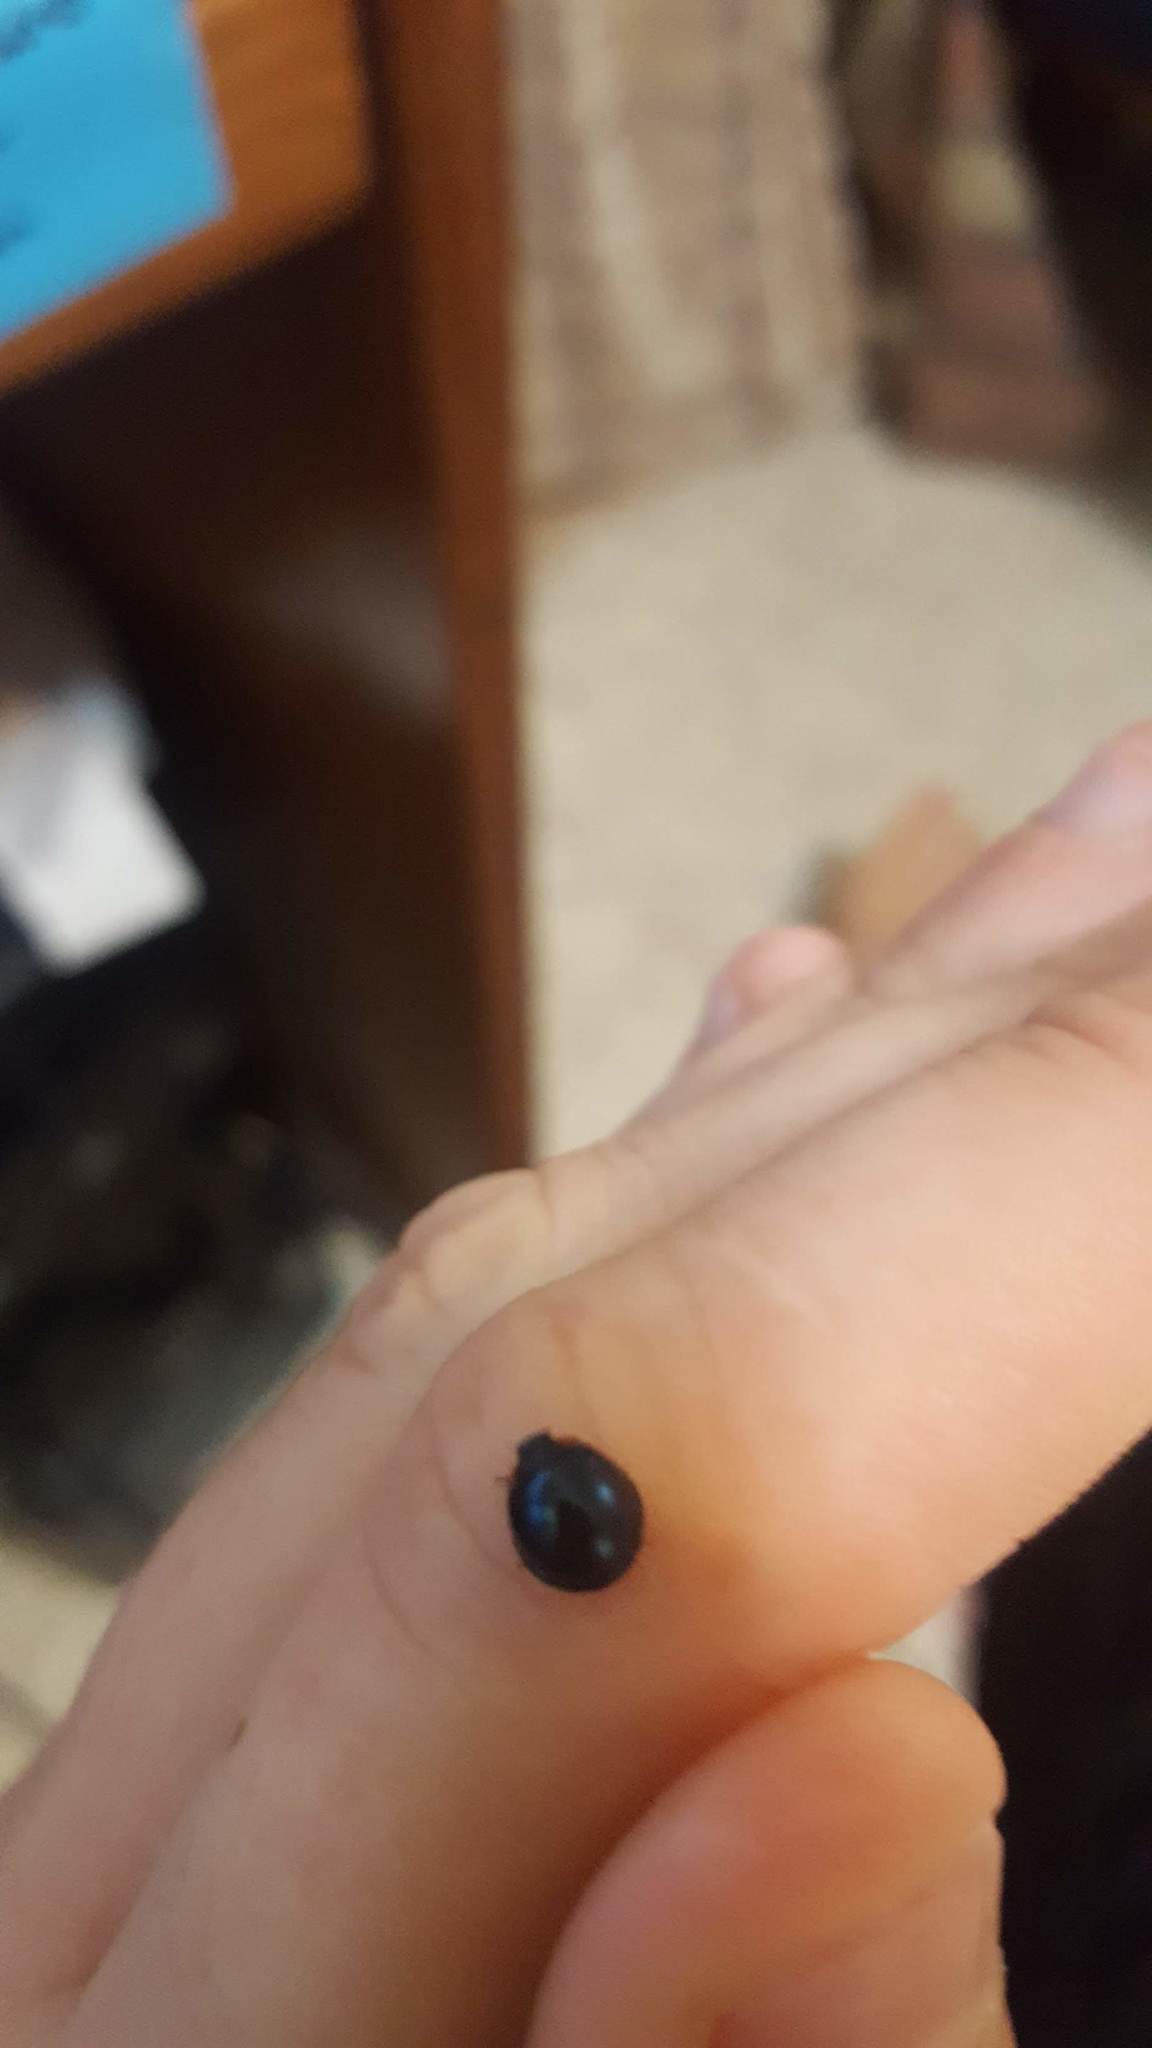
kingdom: Animalia
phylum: Arthropoda
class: Insecta
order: Coleoptera
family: Coccinellidae
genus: Curinus
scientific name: Curinus coeruleus
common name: Ladybird beetle
